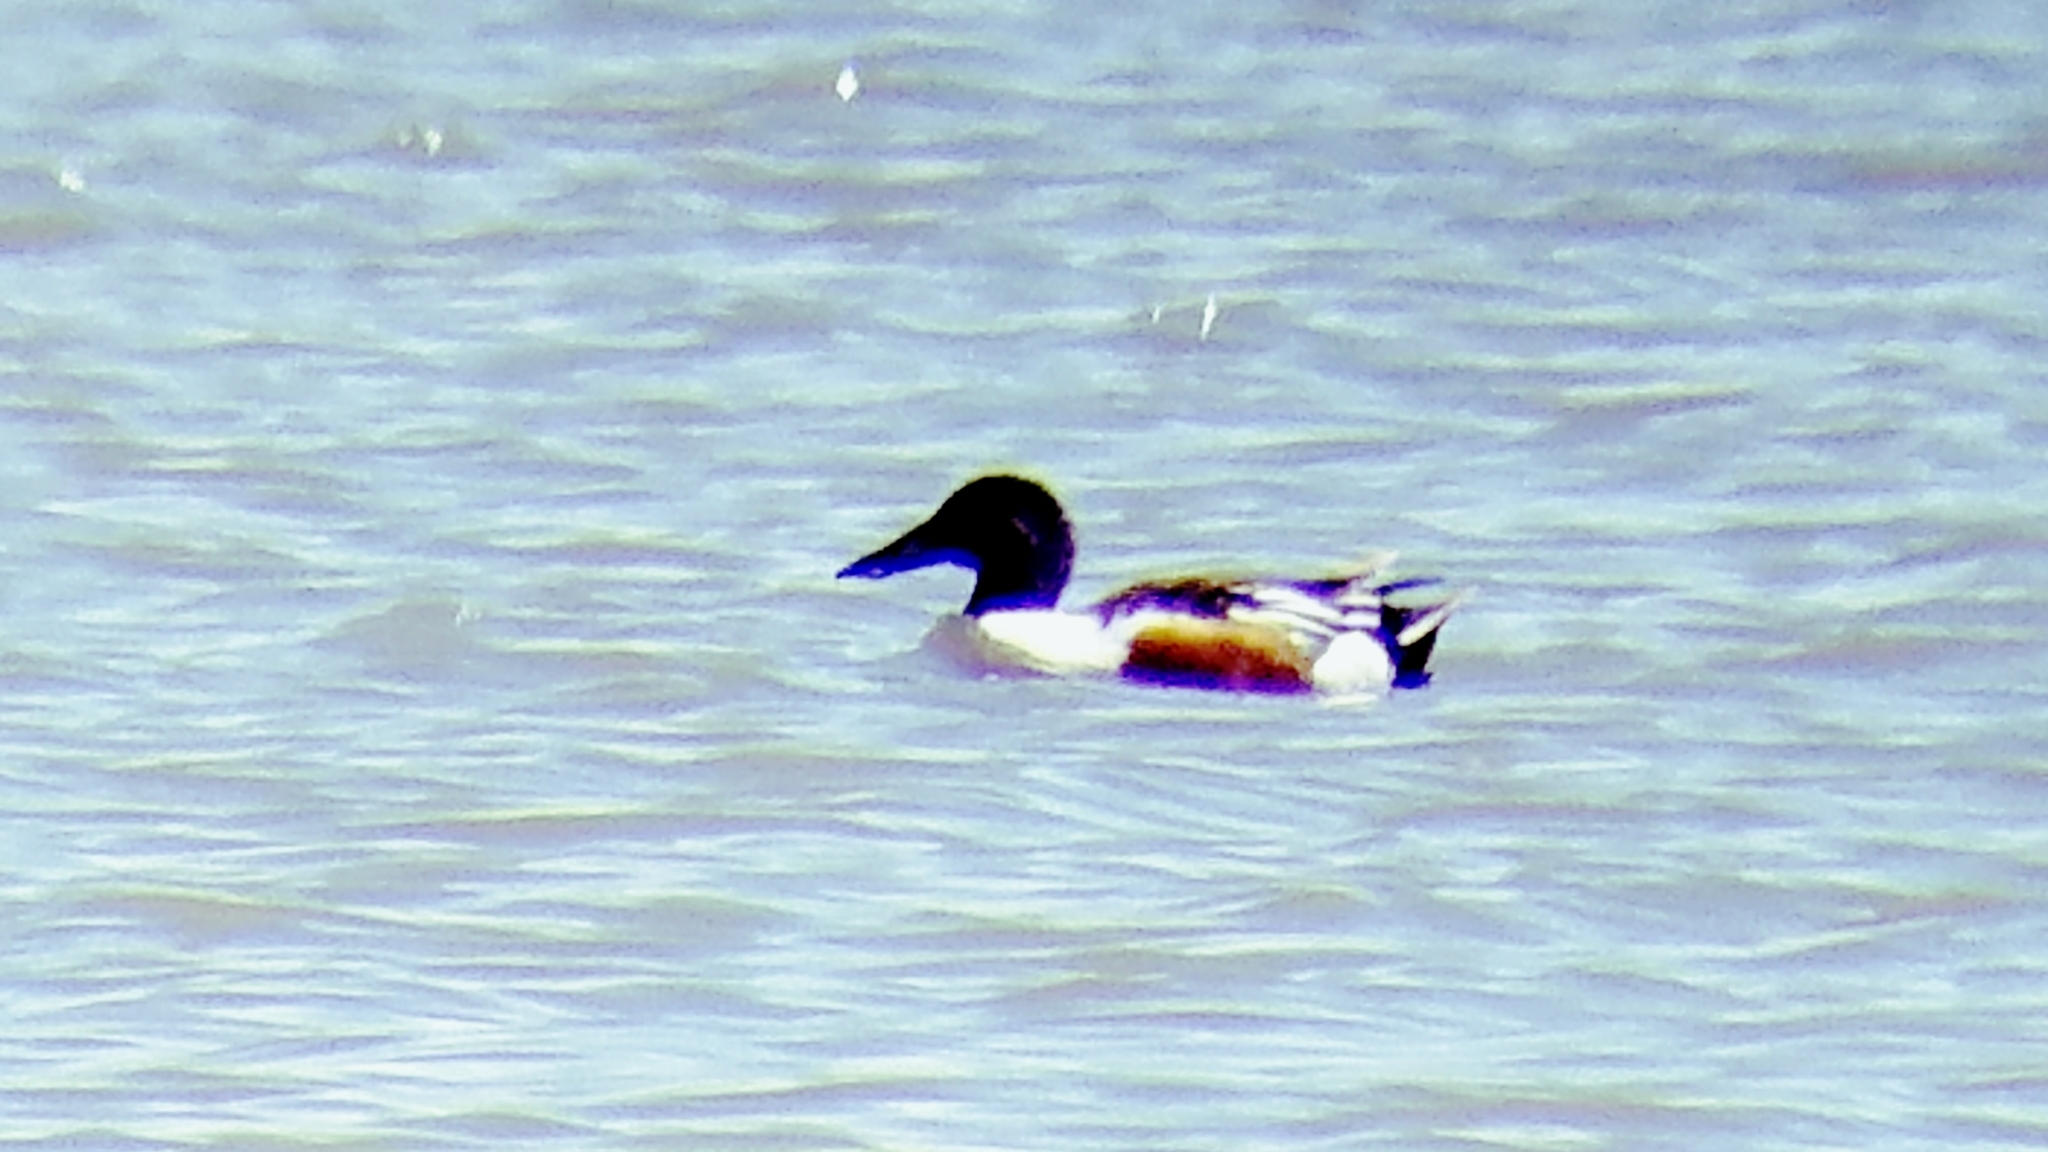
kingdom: Animalia
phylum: Chordata
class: Aves
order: Anseriformes
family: Anatidae
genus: Spatula
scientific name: Spatula clypeata
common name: Northern shoveler
